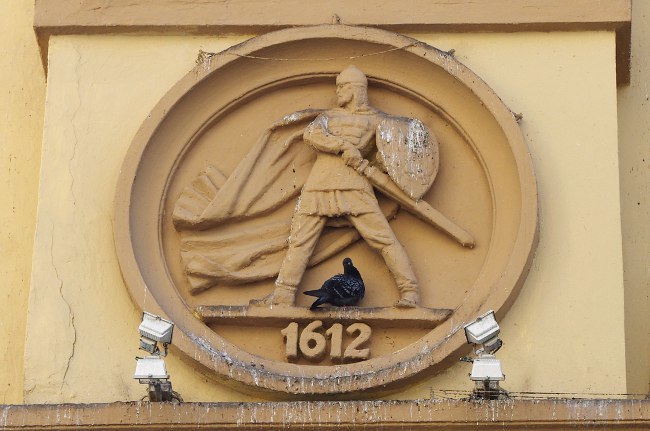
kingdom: Animalia
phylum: Chordata
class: Aves
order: Columbiformes
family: Columbidae
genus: Columba
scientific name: Columba livia
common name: Rock pigeon
